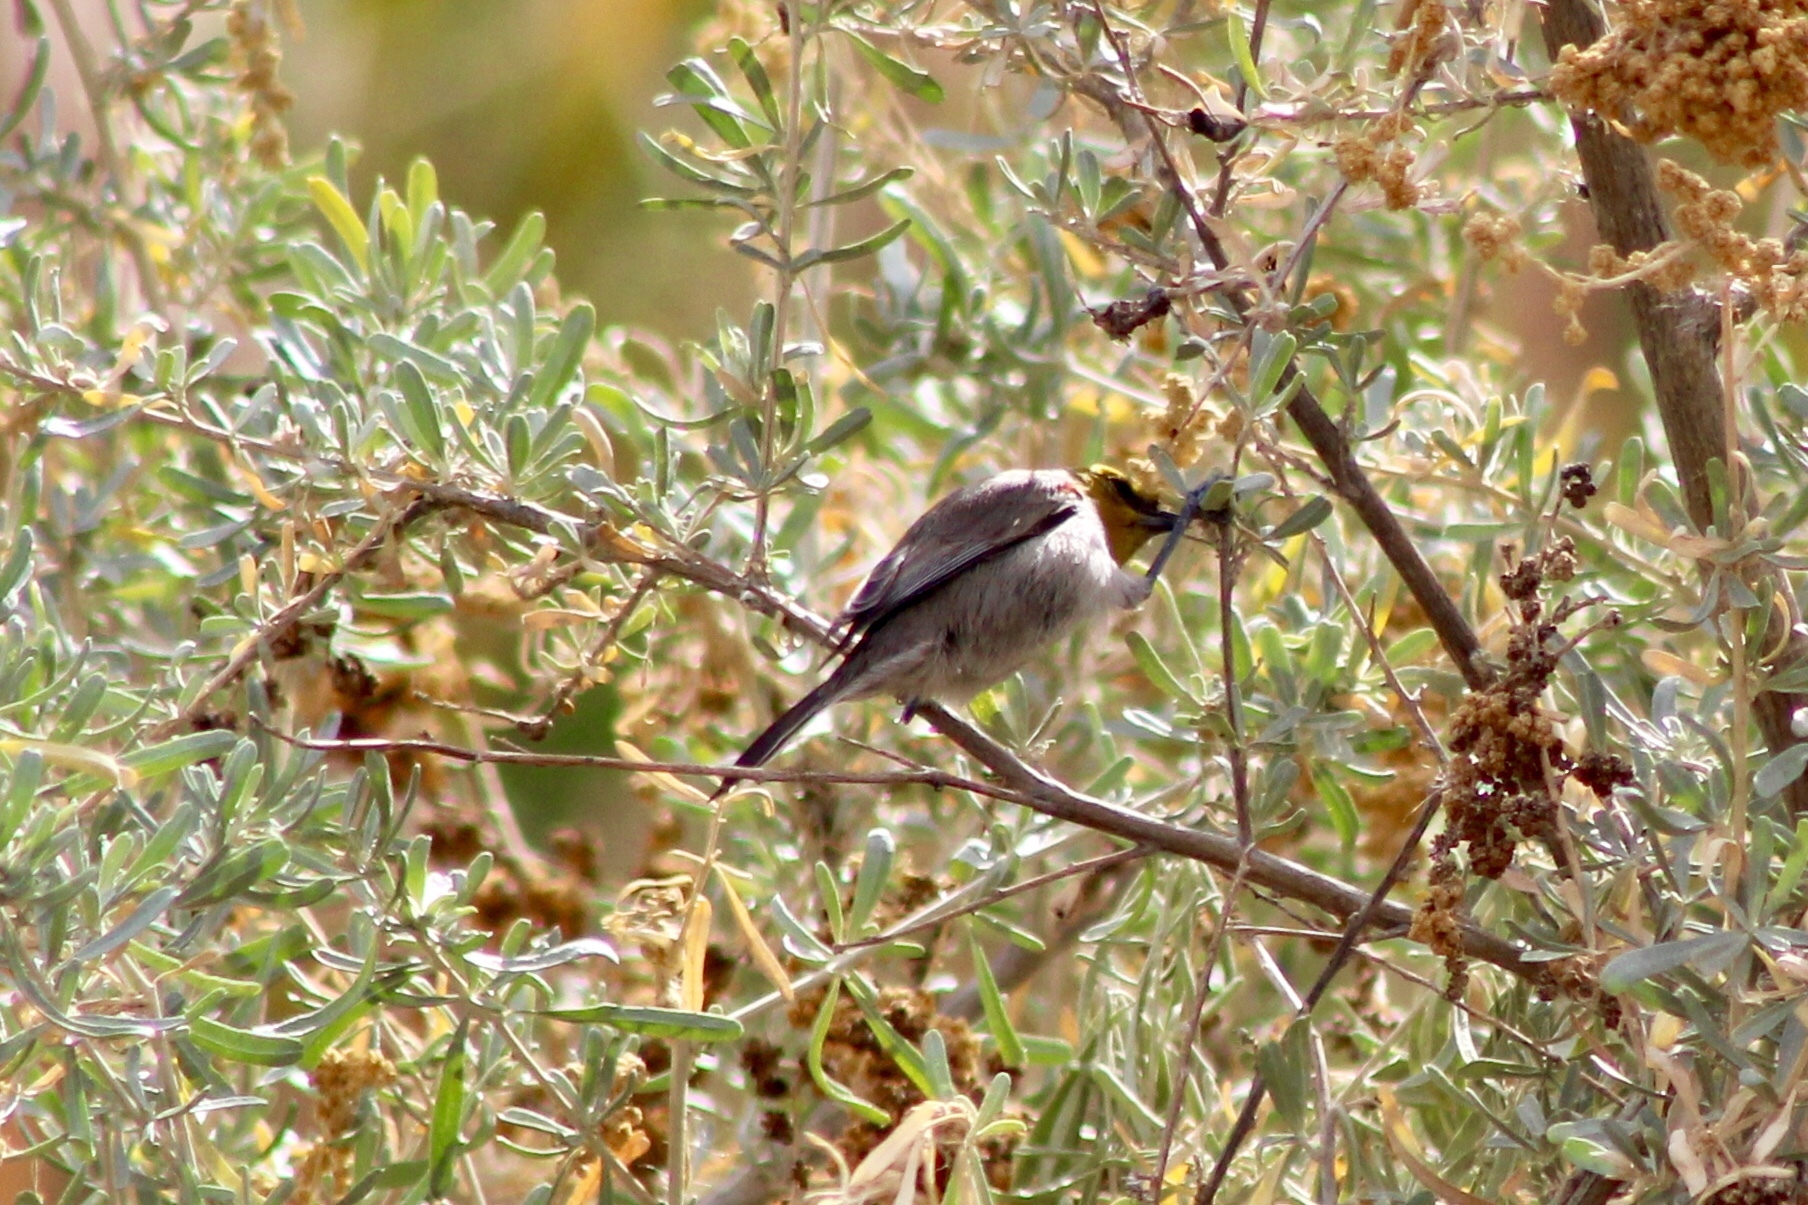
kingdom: Animalia
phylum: Chordata
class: Aves
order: Passeriformes
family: Remizidae
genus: Auriparus
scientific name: Auriparus flaviceps
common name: Verdin
